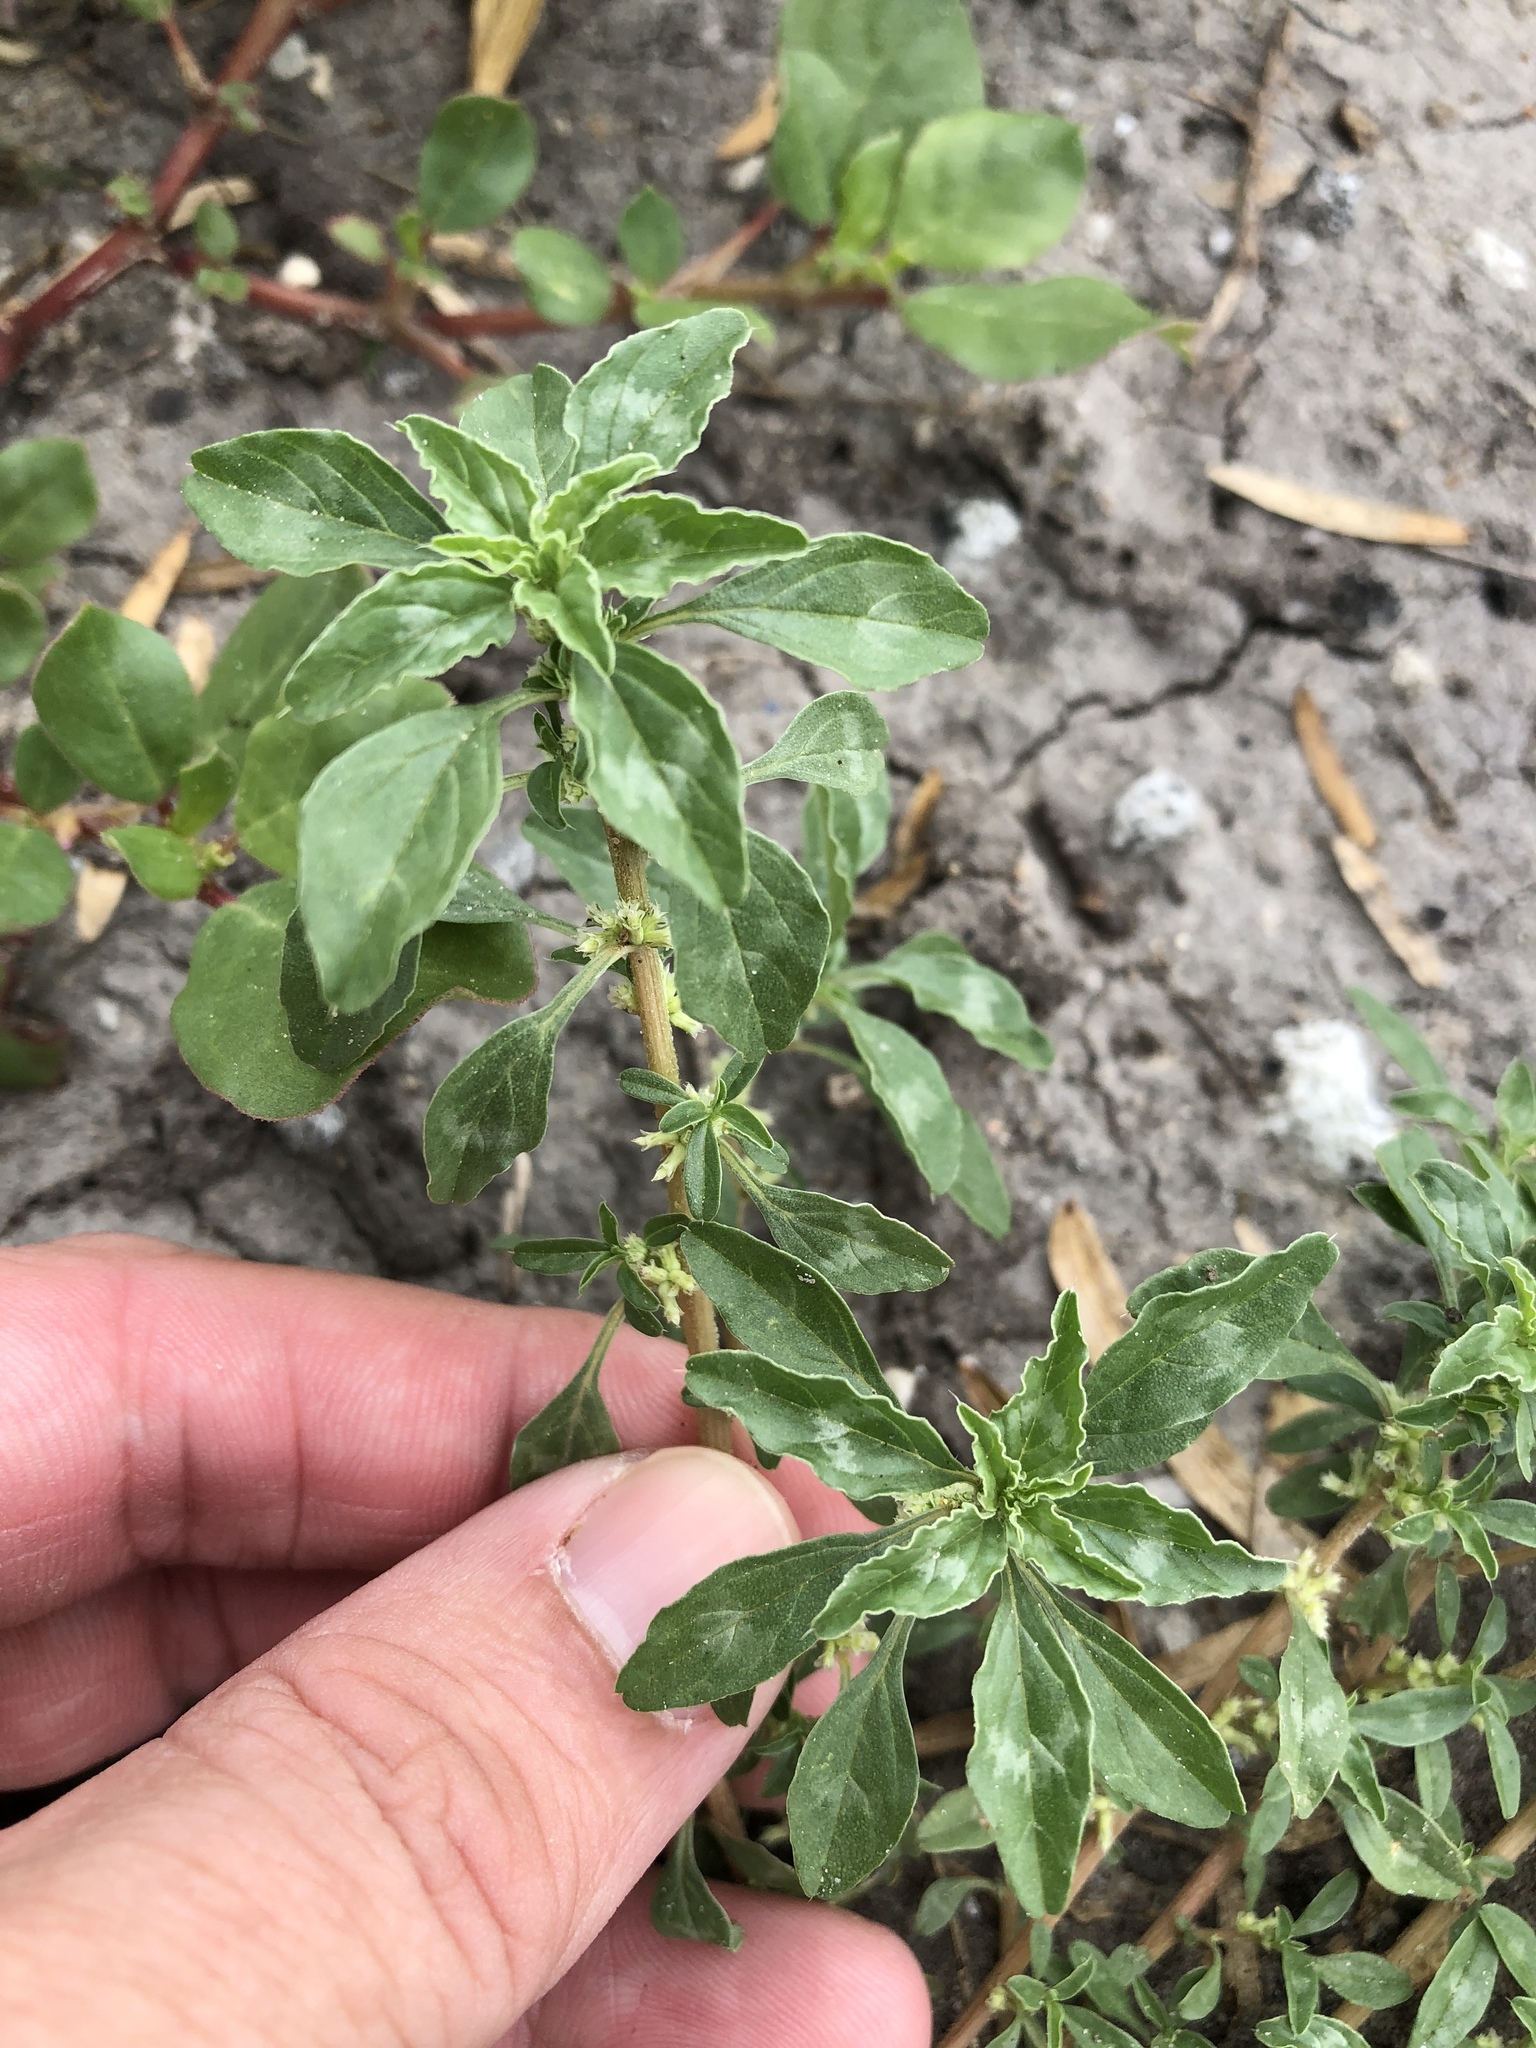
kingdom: Plantae
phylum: Tracheophyta
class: Magnoliopsida
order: Caryophyllales
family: Amaranthaceae
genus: Amaranthus
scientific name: Amaranthus polygonoides
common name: Tropical amaranth
